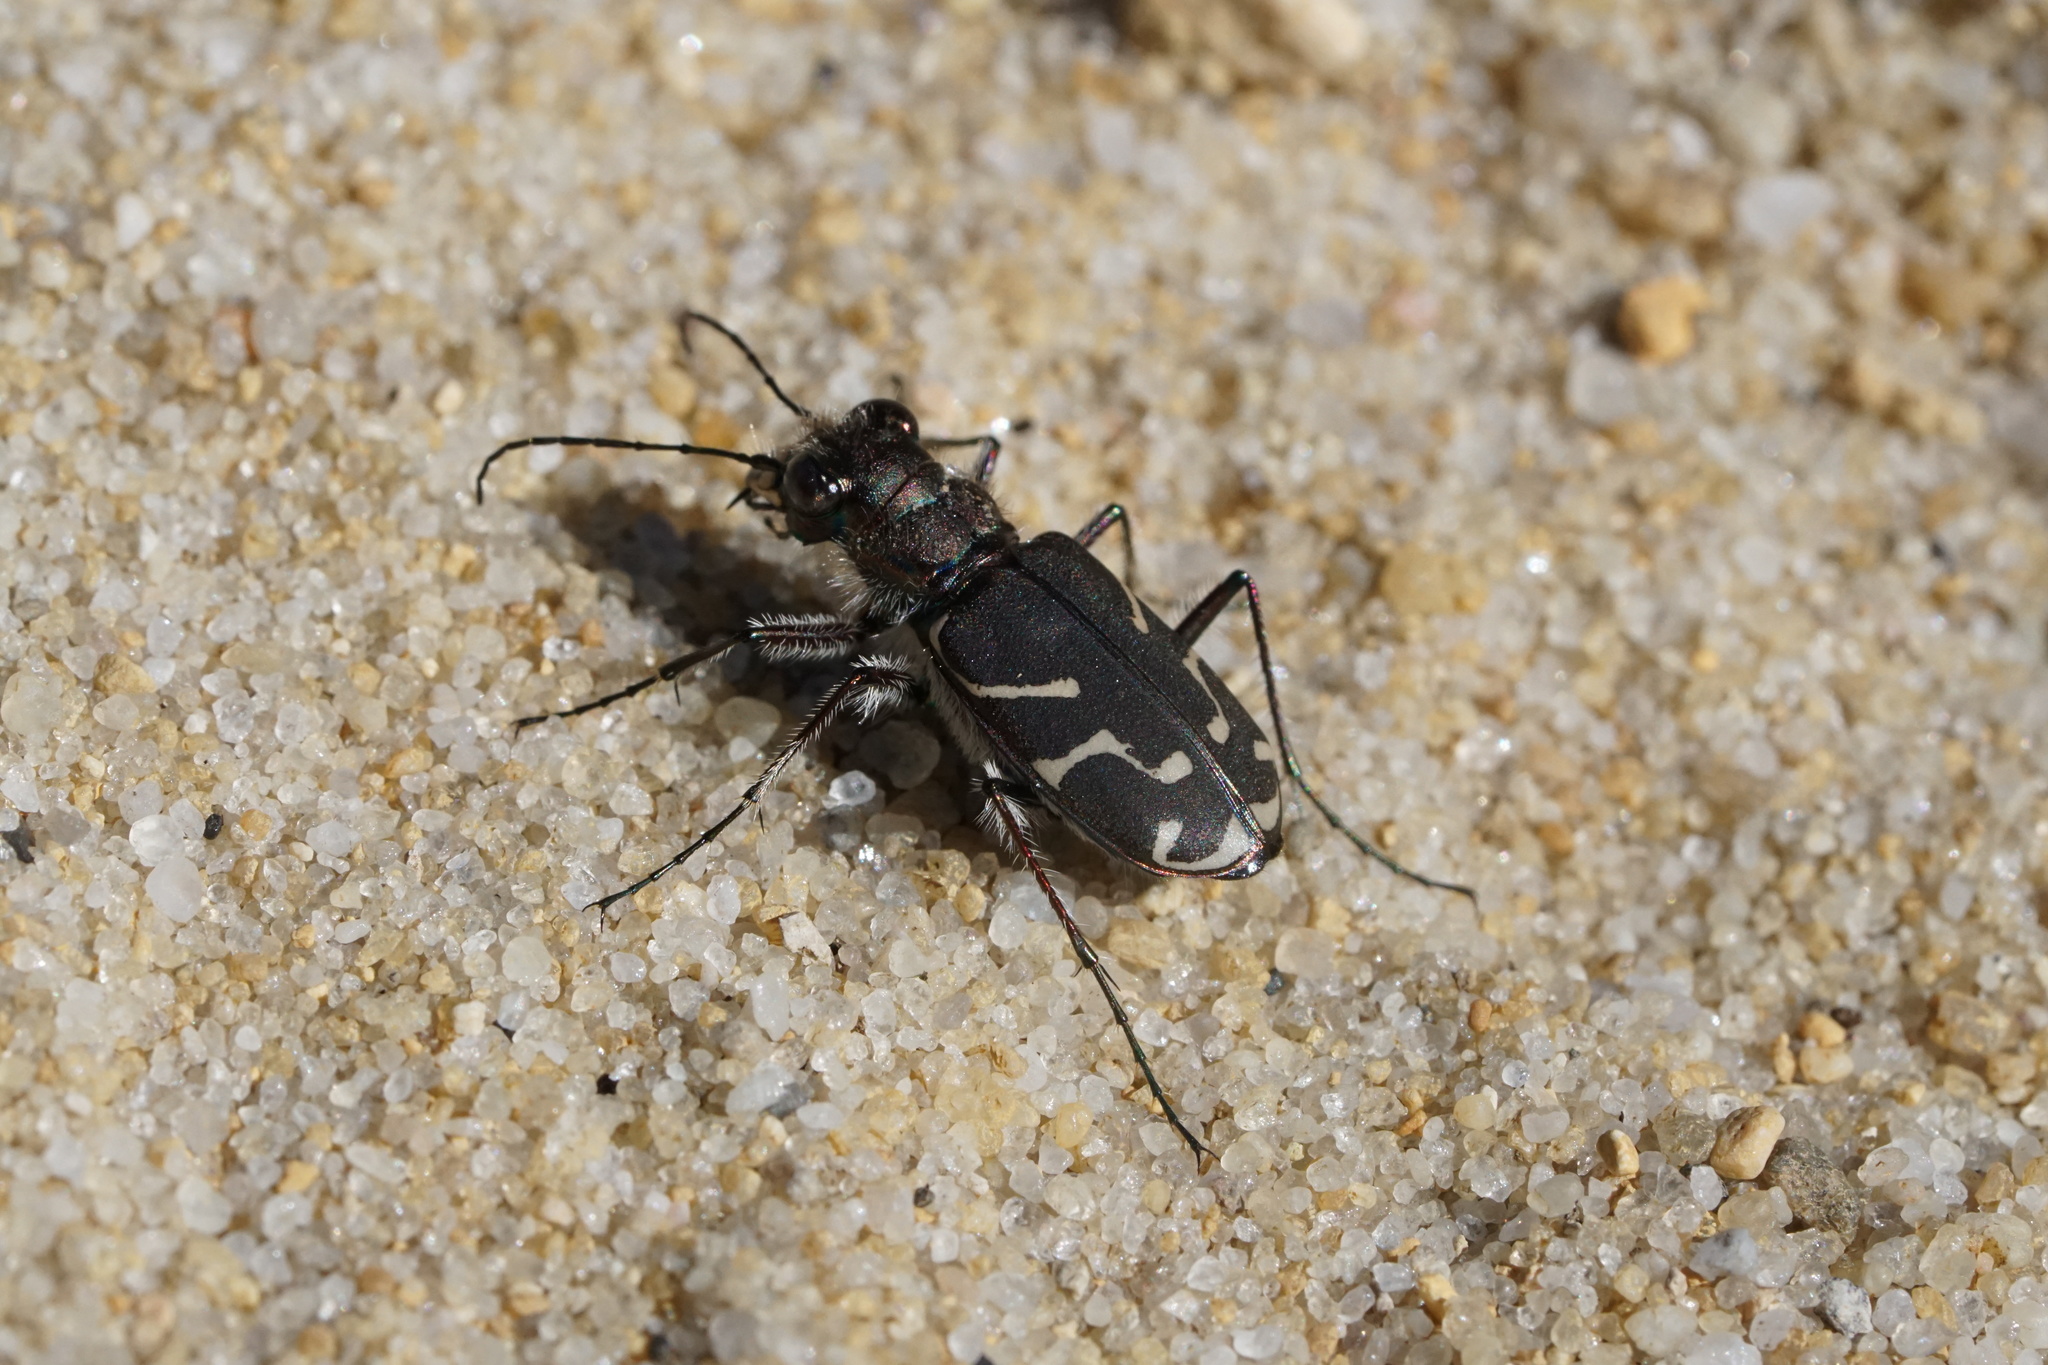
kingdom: Animalia
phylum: Arthropoda
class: Insecta
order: Coleoptera
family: Carabidae
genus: Cicindela
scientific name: Cicindela tranquebarica
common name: Oblique-lined tiger beetle
